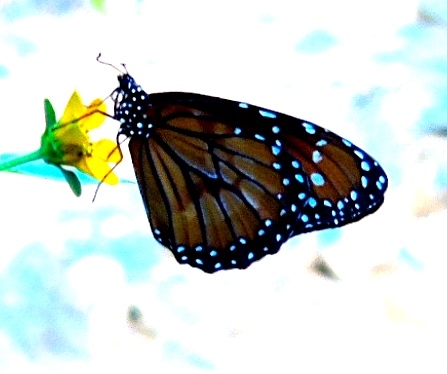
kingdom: Animalia
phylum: Arthropoda
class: Insecta
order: Lepidoptera
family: Nymphalidae
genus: Danaus
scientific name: Danaus eresimus
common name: Soldier
